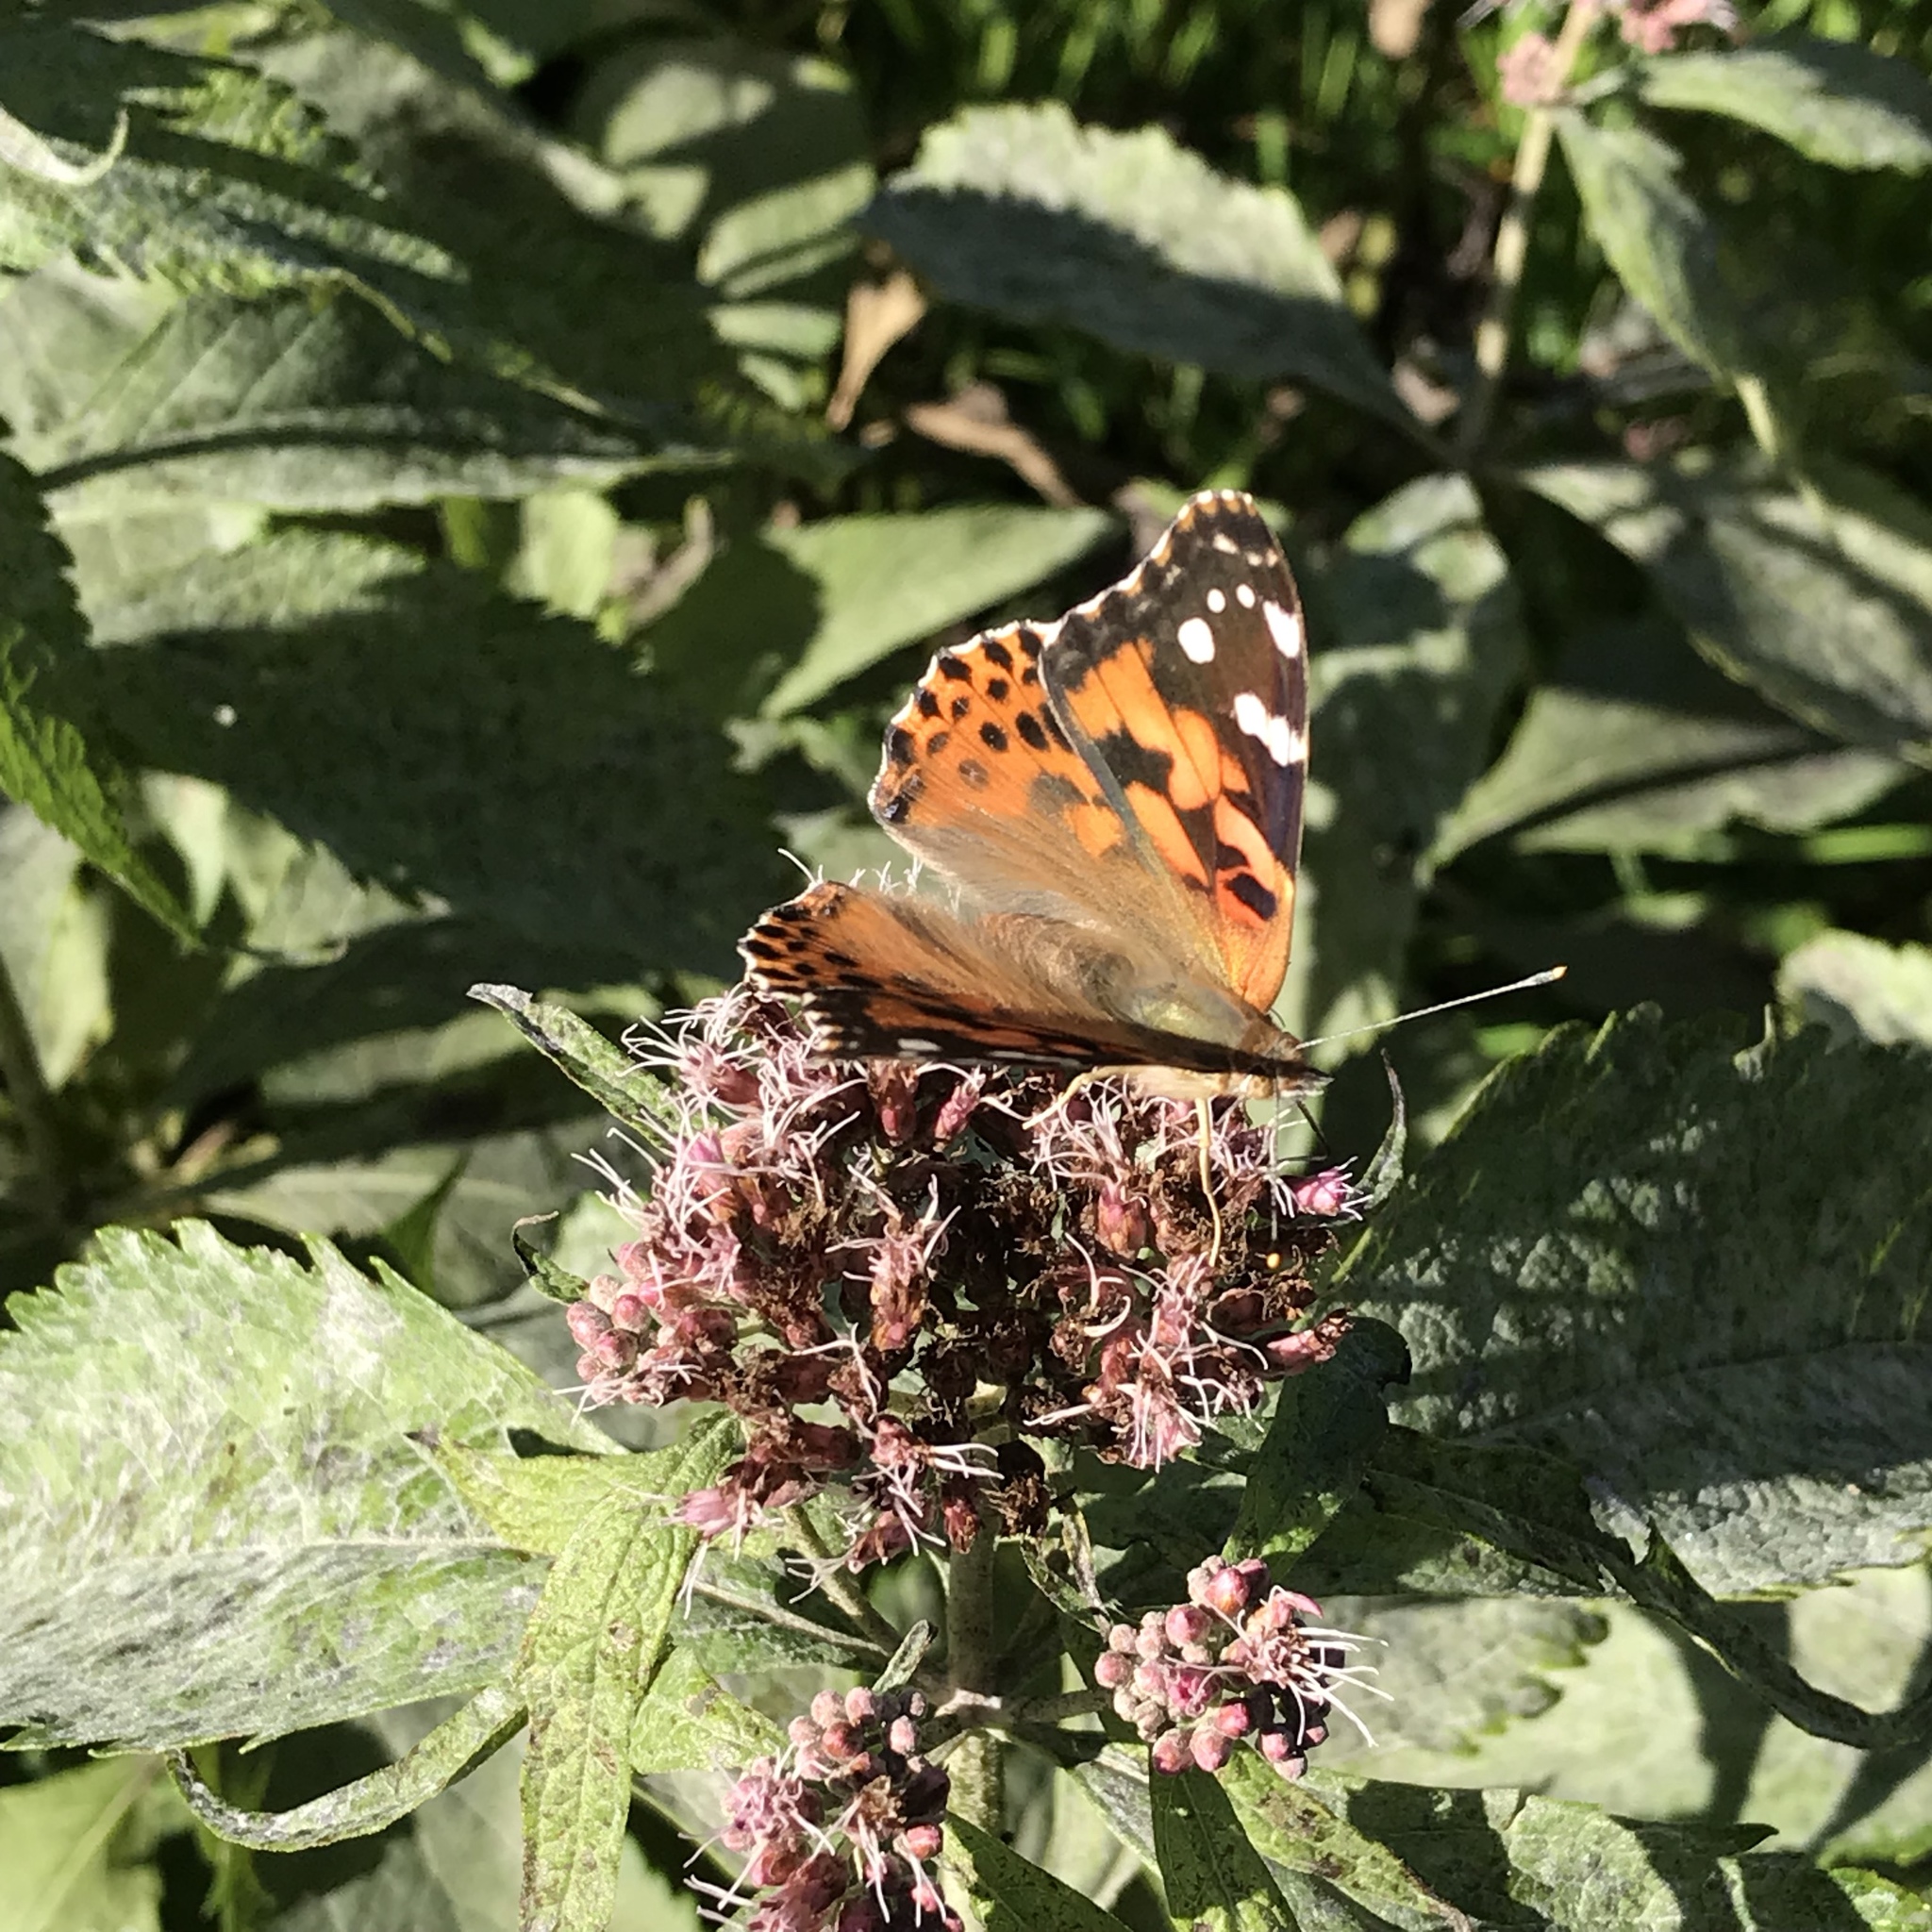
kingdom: Animalia
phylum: Arthropoda
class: Insecta
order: Lepidoptera
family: Nymphalidae
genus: Vanessa
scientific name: Vanessa cardui
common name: Painted lady
